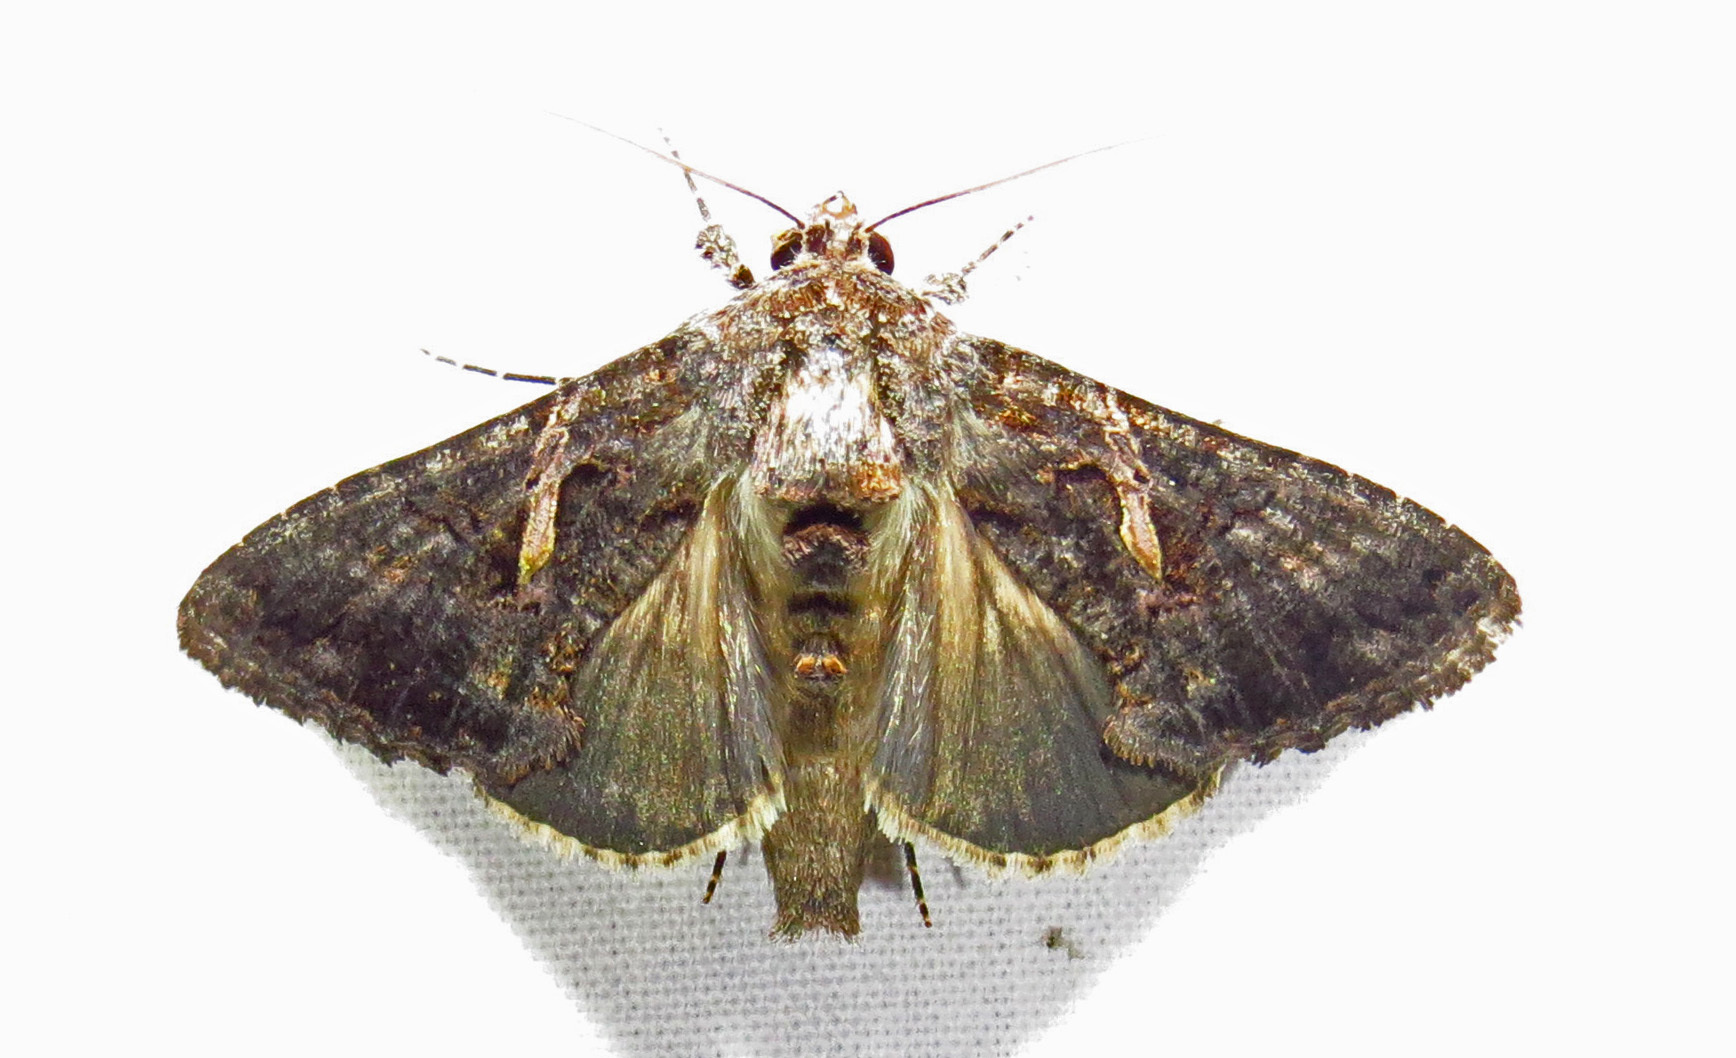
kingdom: Animalia
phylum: Arthropoda
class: Insecta
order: Lepidoptera
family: Noctuidae
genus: Ctenoplusia
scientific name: Ctenoplusia oxygramma
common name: Sharp-stigma looper moth
